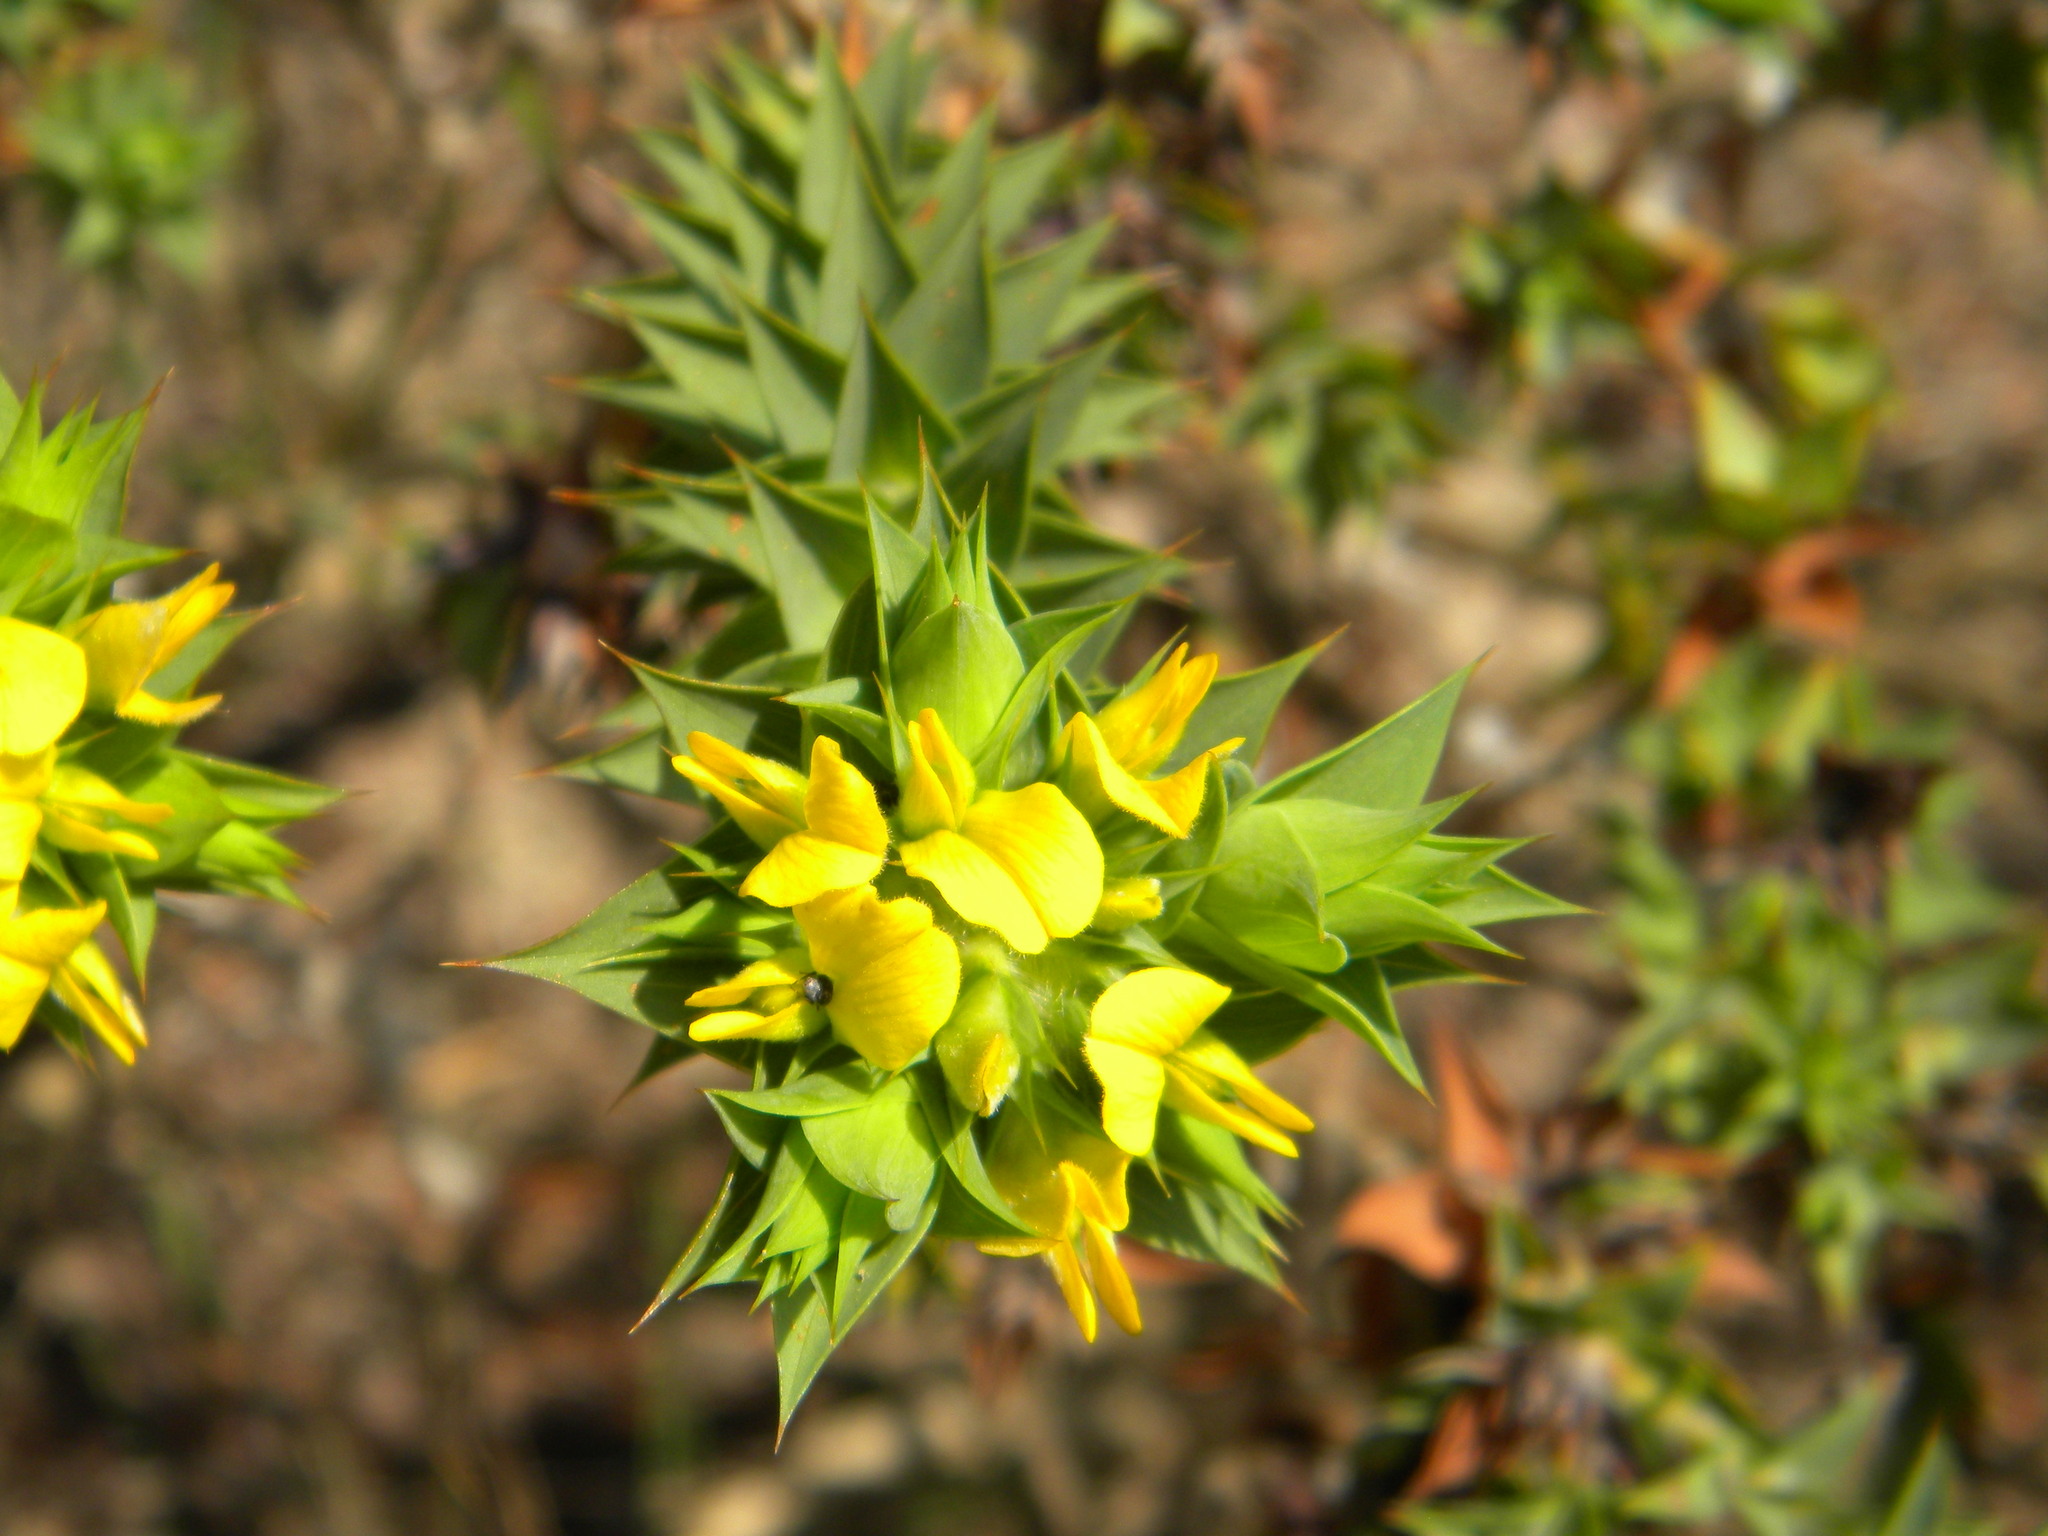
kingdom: Plantae
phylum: Tracheophyta
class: Magnoliopsida
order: Fabales
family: Fabaceae
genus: Aspalathus
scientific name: Aspalathus cordata
